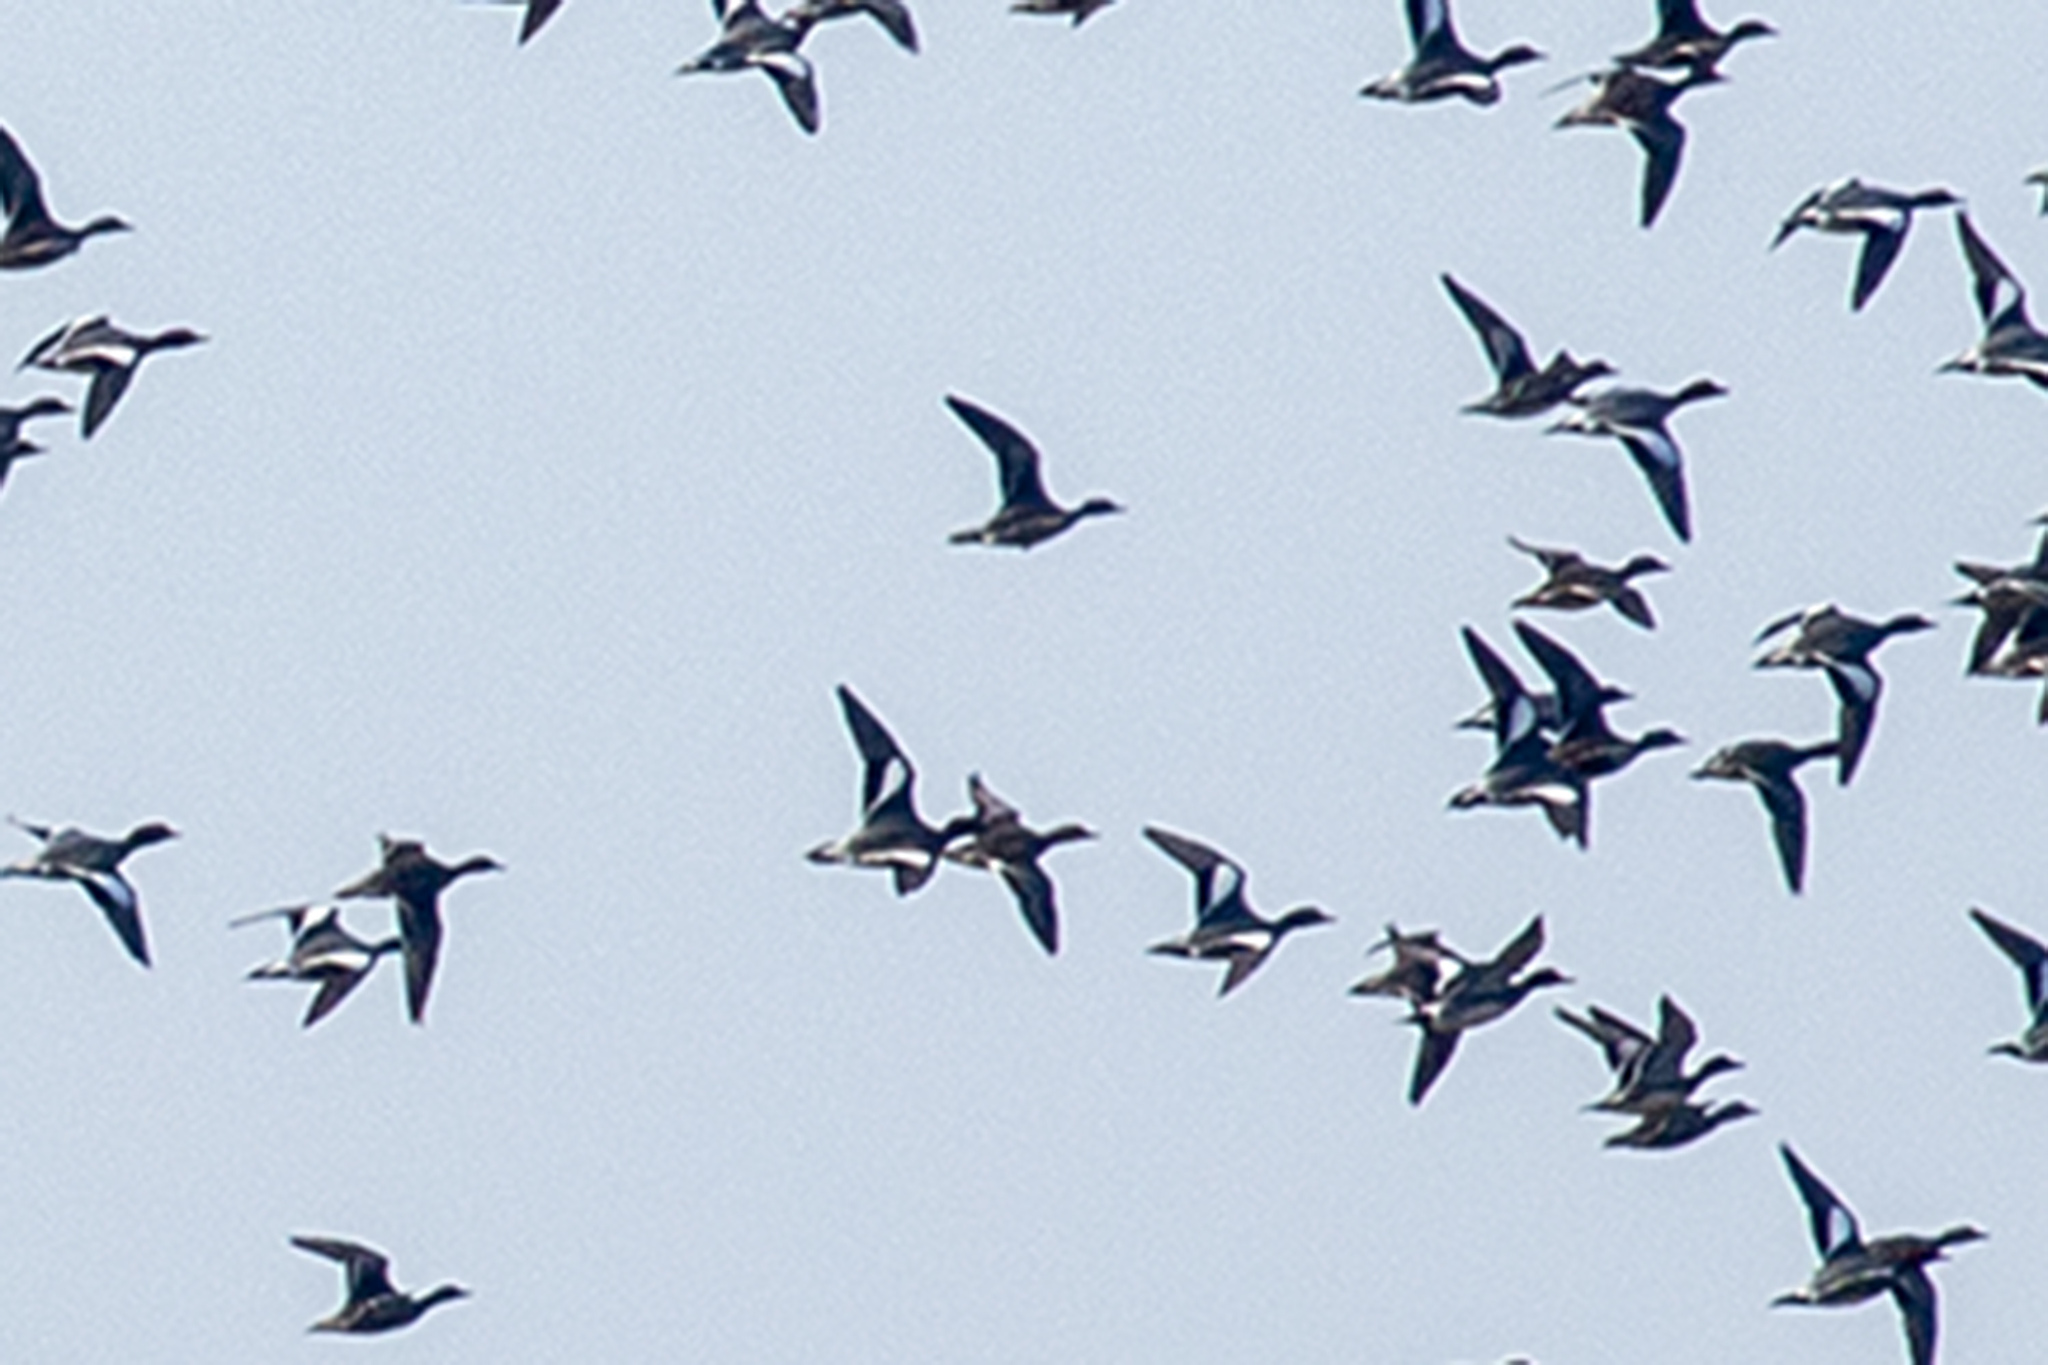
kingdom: Animalia
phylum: Chordata
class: Aves
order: Anseriformes
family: Anatidae
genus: Mareca
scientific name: Mareca penelope
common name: Eurasian wigeon
